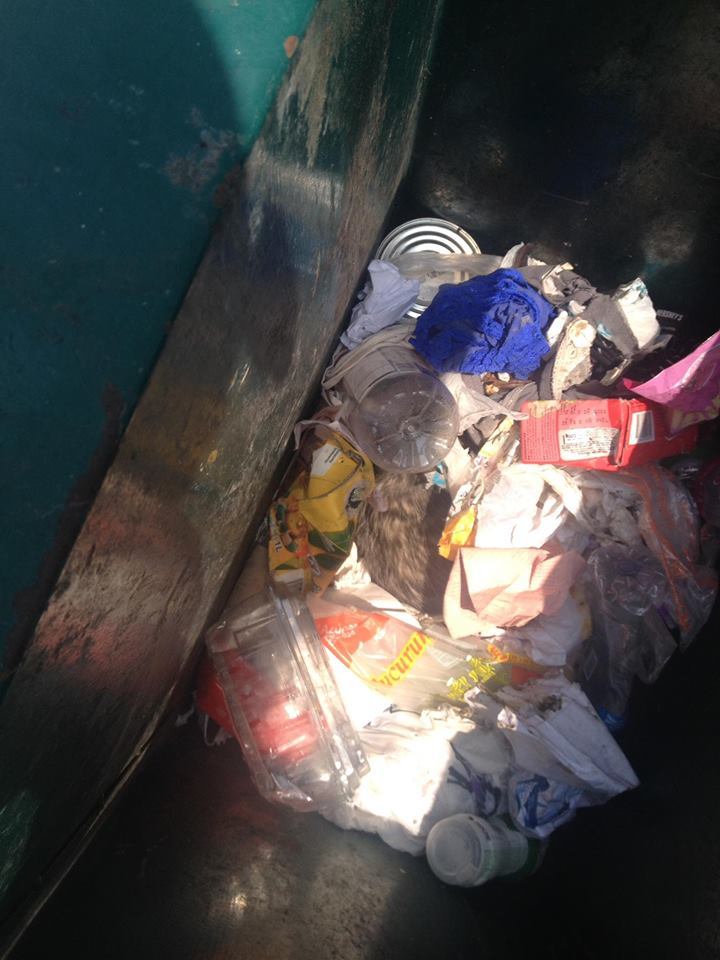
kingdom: Animalia
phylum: Chordata
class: Mammalia
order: Didelphimorphia
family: Didelphidae
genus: Didelphis
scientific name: Didelphis virginiana
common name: Virginia opossum
